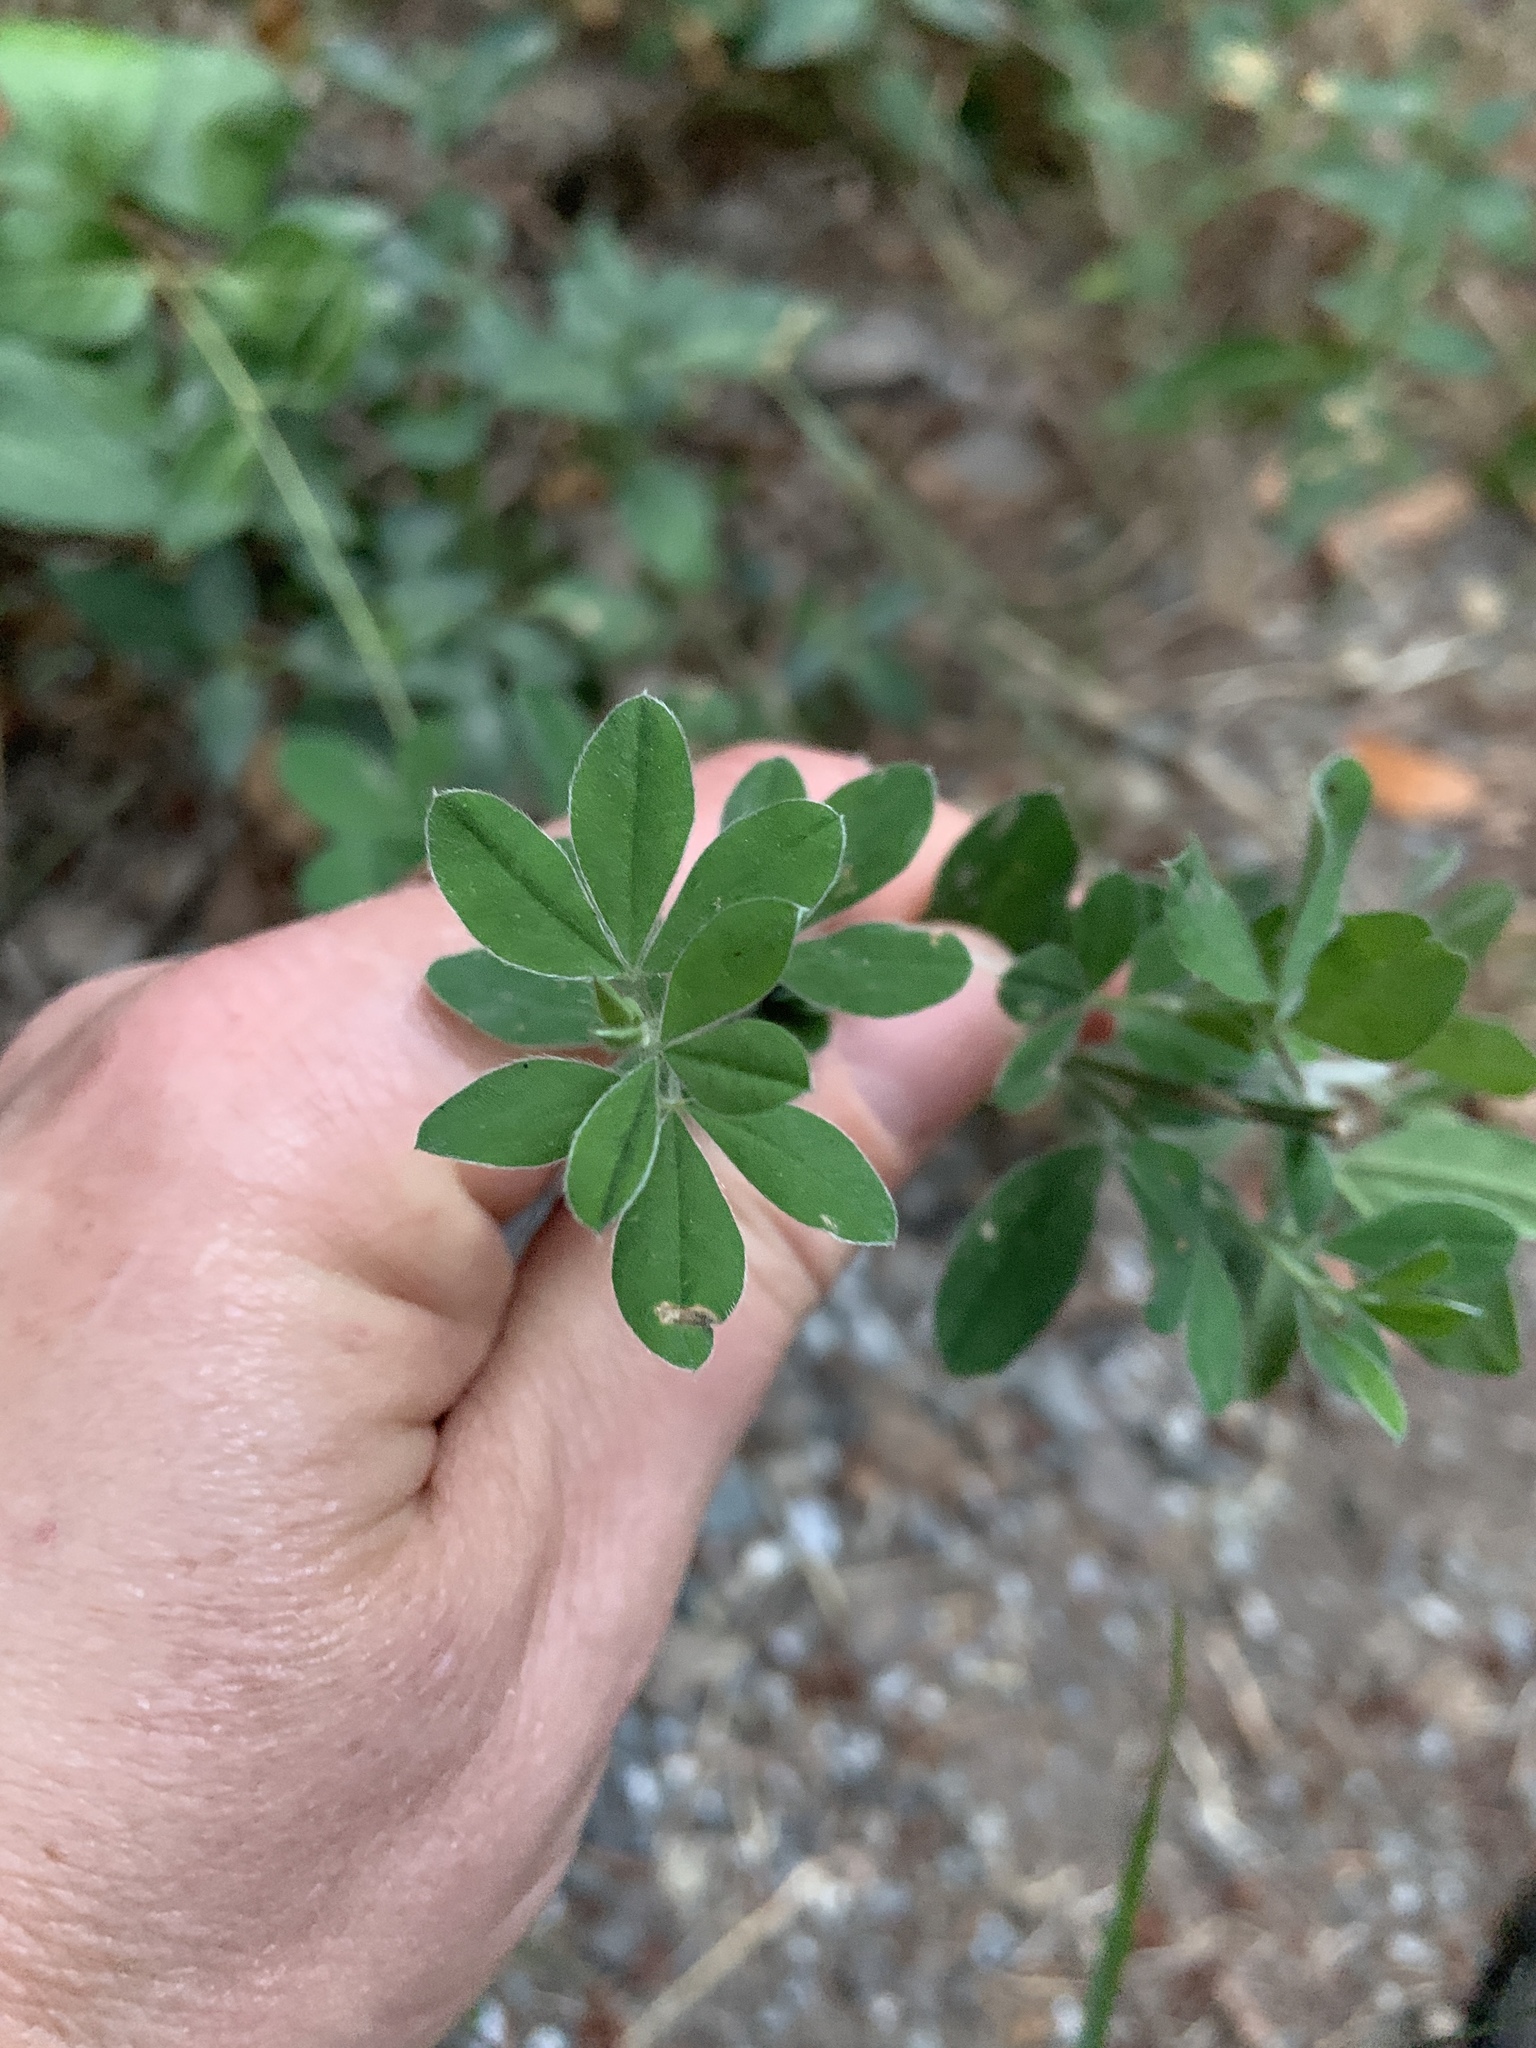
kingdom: Plantae
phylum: Tracheophyta
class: Magnoliopsida
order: Fabales
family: Fabaceae
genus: Genista
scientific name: Genista monspessulana
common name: Montpellier broom
